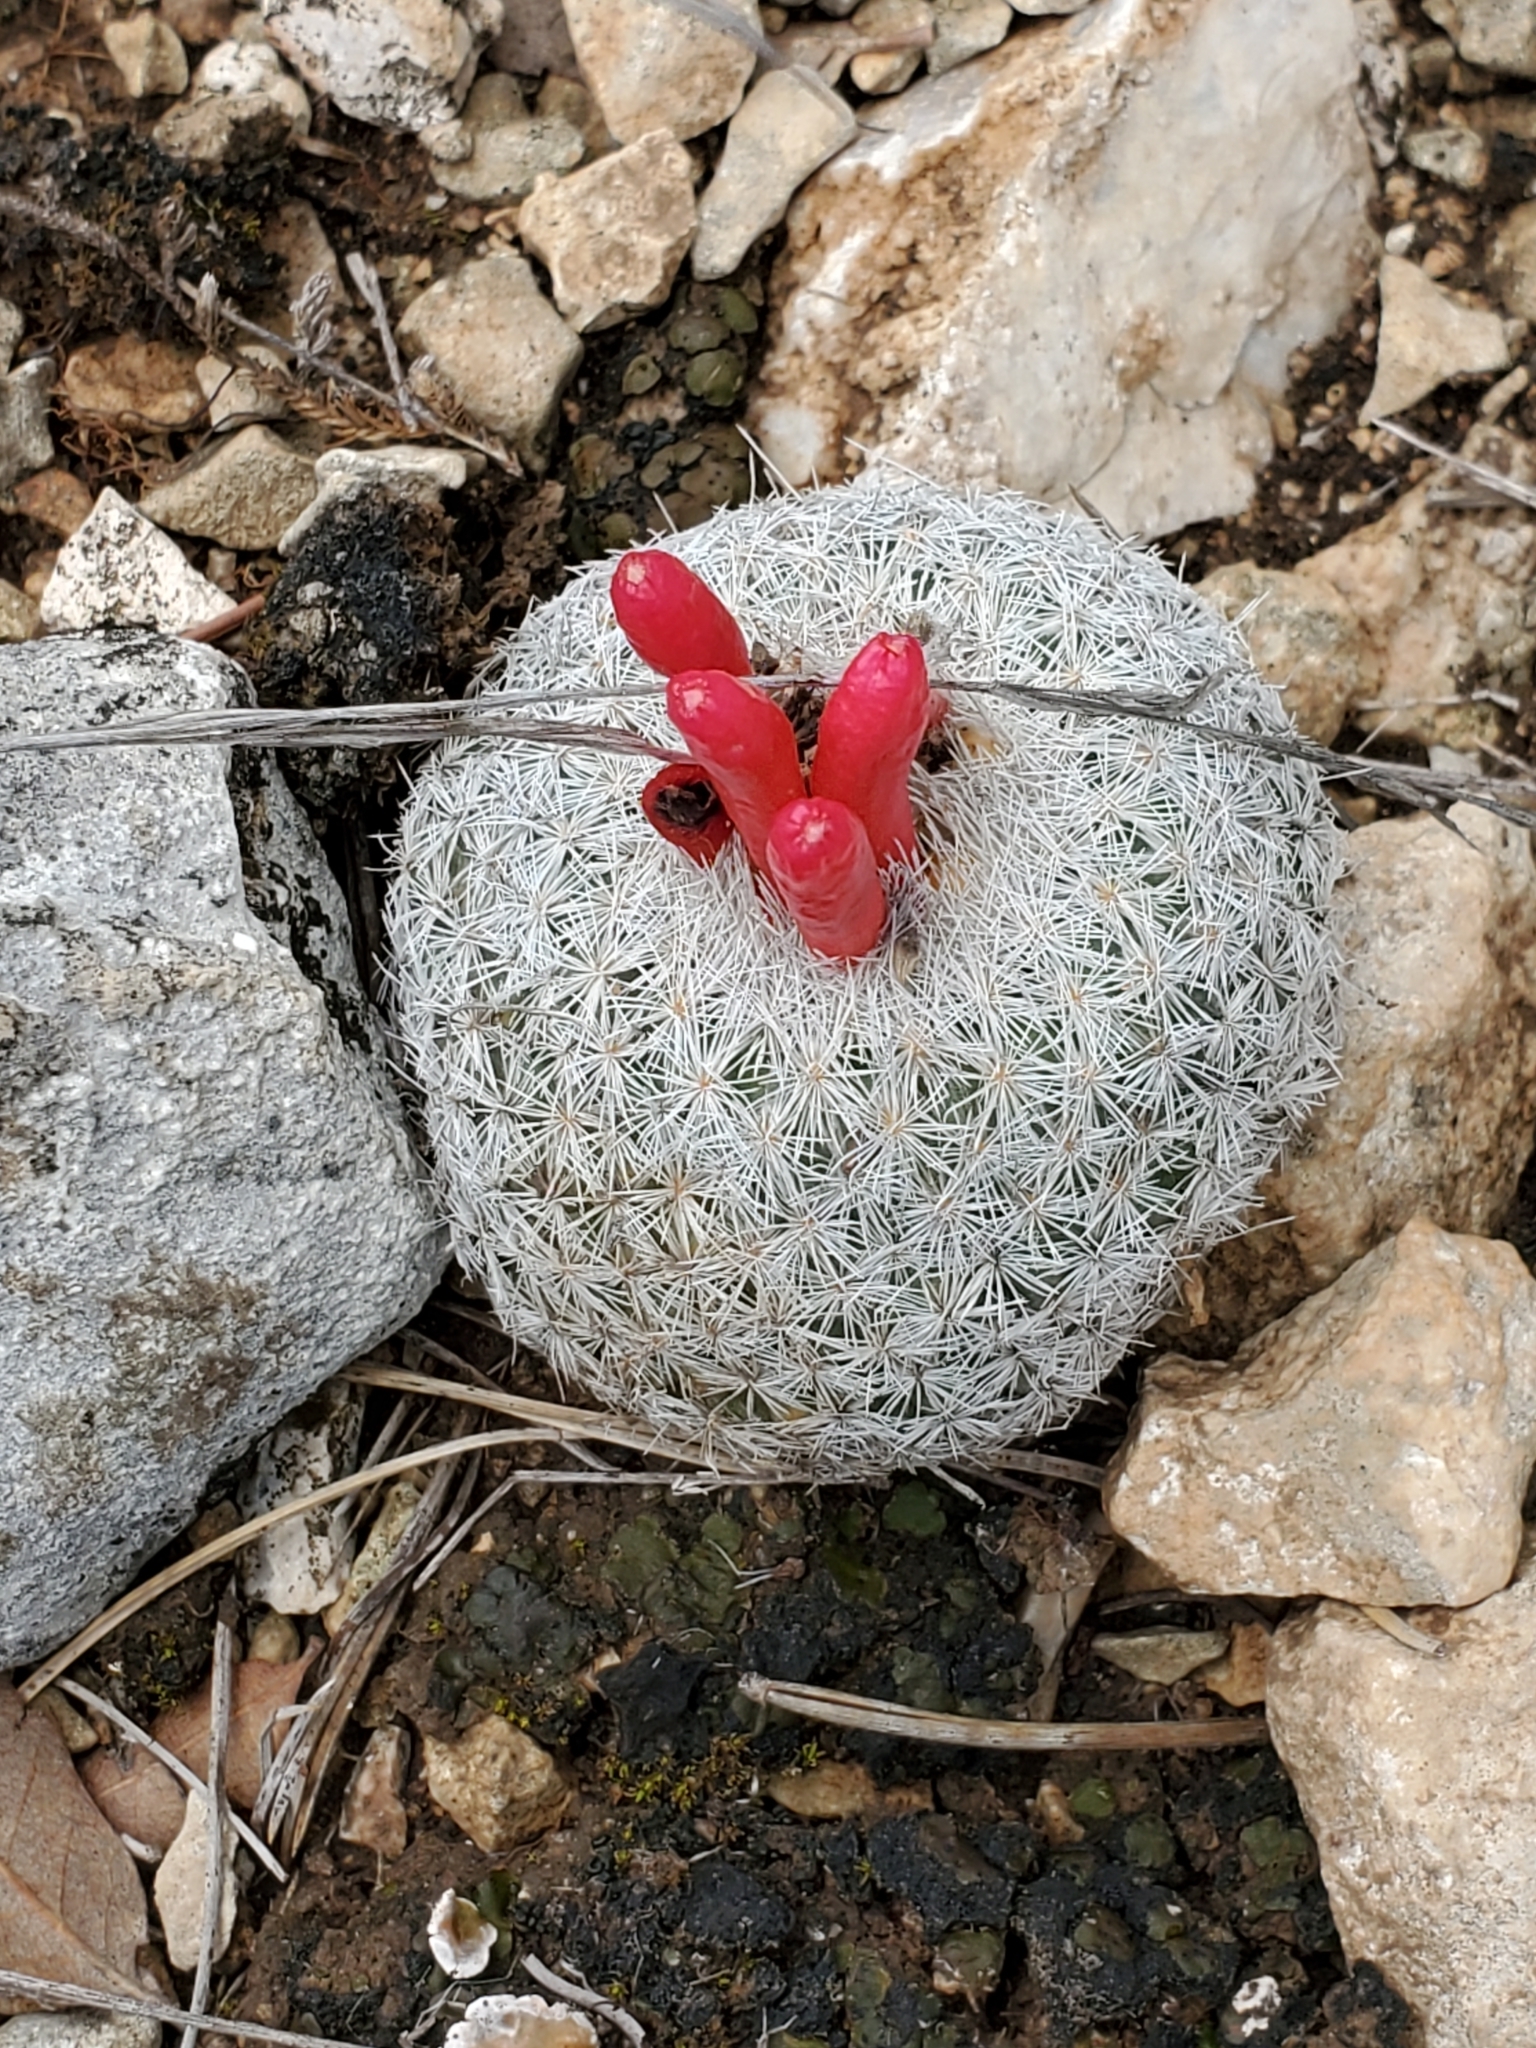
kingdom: Plantae
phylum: Tracheophyta
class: Magnoliopsida
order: Caryophyllales
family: Cactaceae
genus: Epithelantha
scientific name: Epithelantha micromeris
